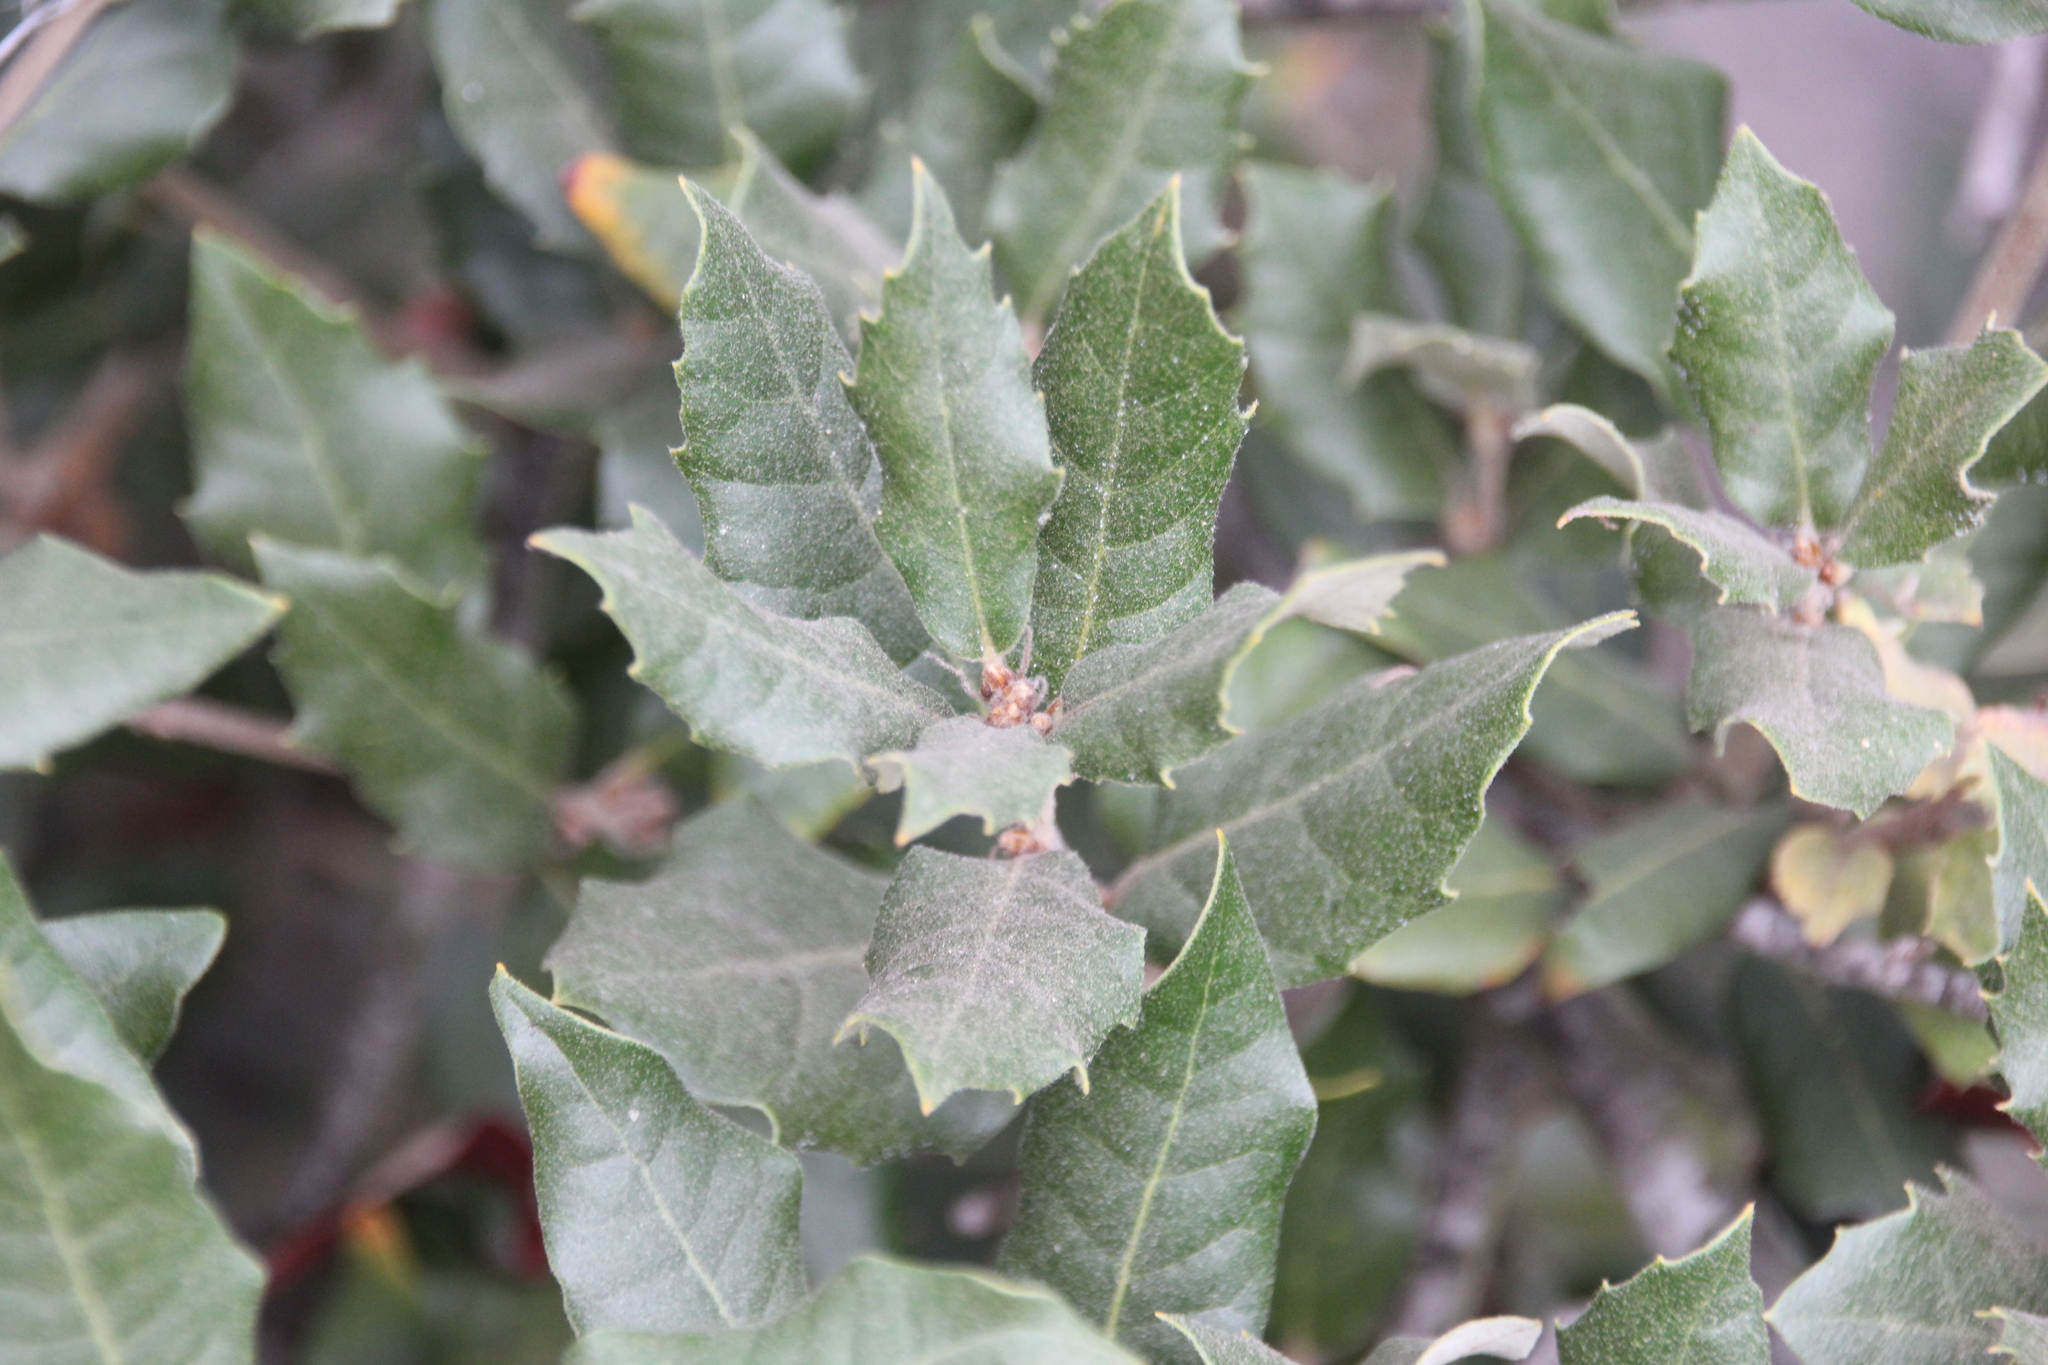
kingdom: Plantae
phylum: Tracheophyta
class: Magnoliopsida
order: Fagales
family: Fagaceae
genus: Quercus
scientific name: Quercus ilex
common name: Evergreen oak
